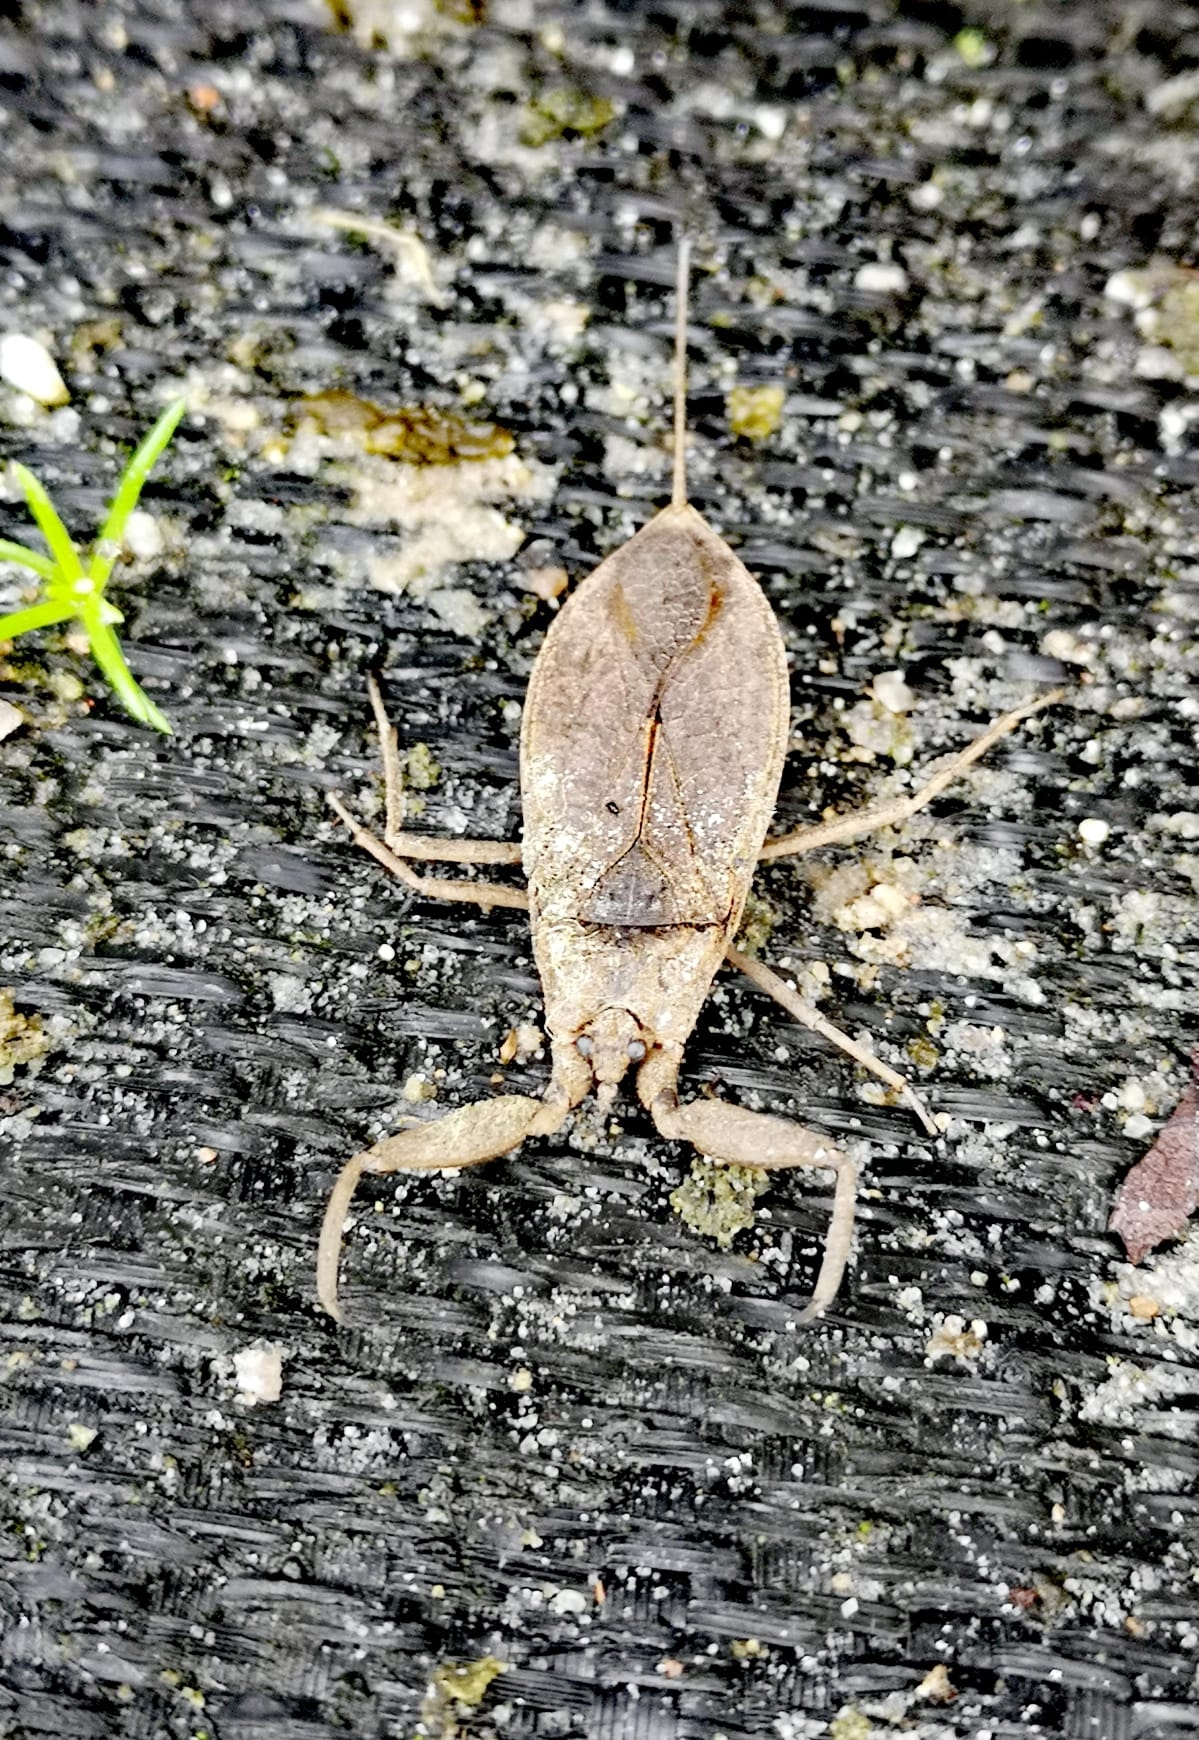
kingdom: Animalia
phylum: Arthropoda
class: Insecta
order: Hemiptera
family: Nepidae
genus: Nepa
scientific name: Nepa cinerea
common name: Water scorpion
